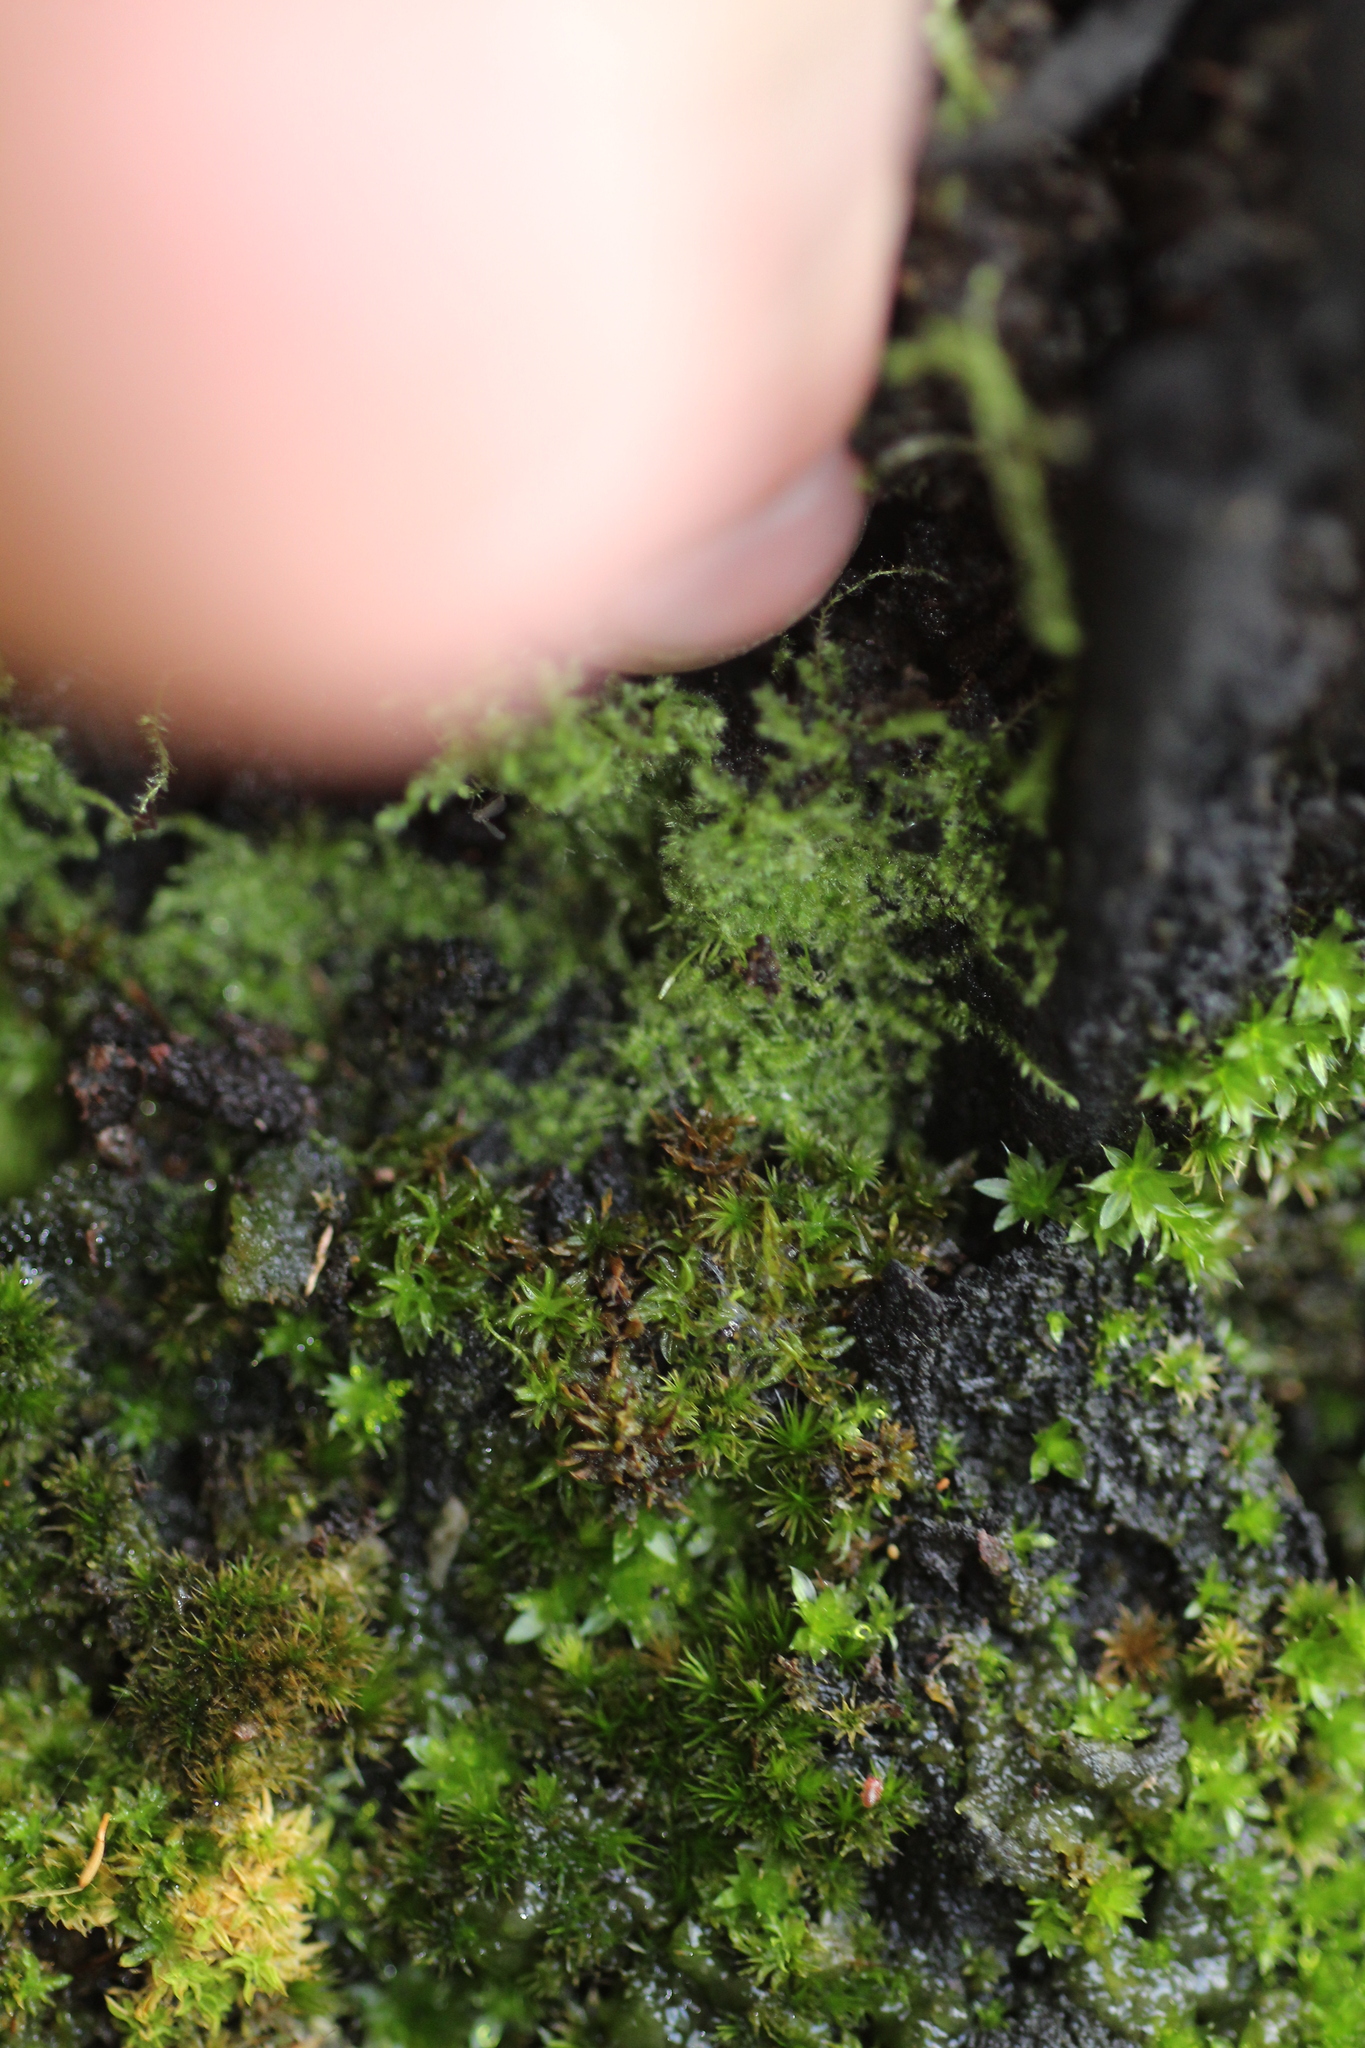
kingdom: Plantae
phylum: Bryophyta
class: Bryopsida
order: Hypnales
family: Fabroniaceae
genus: Fabronia
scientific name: Fabronia hampeana
